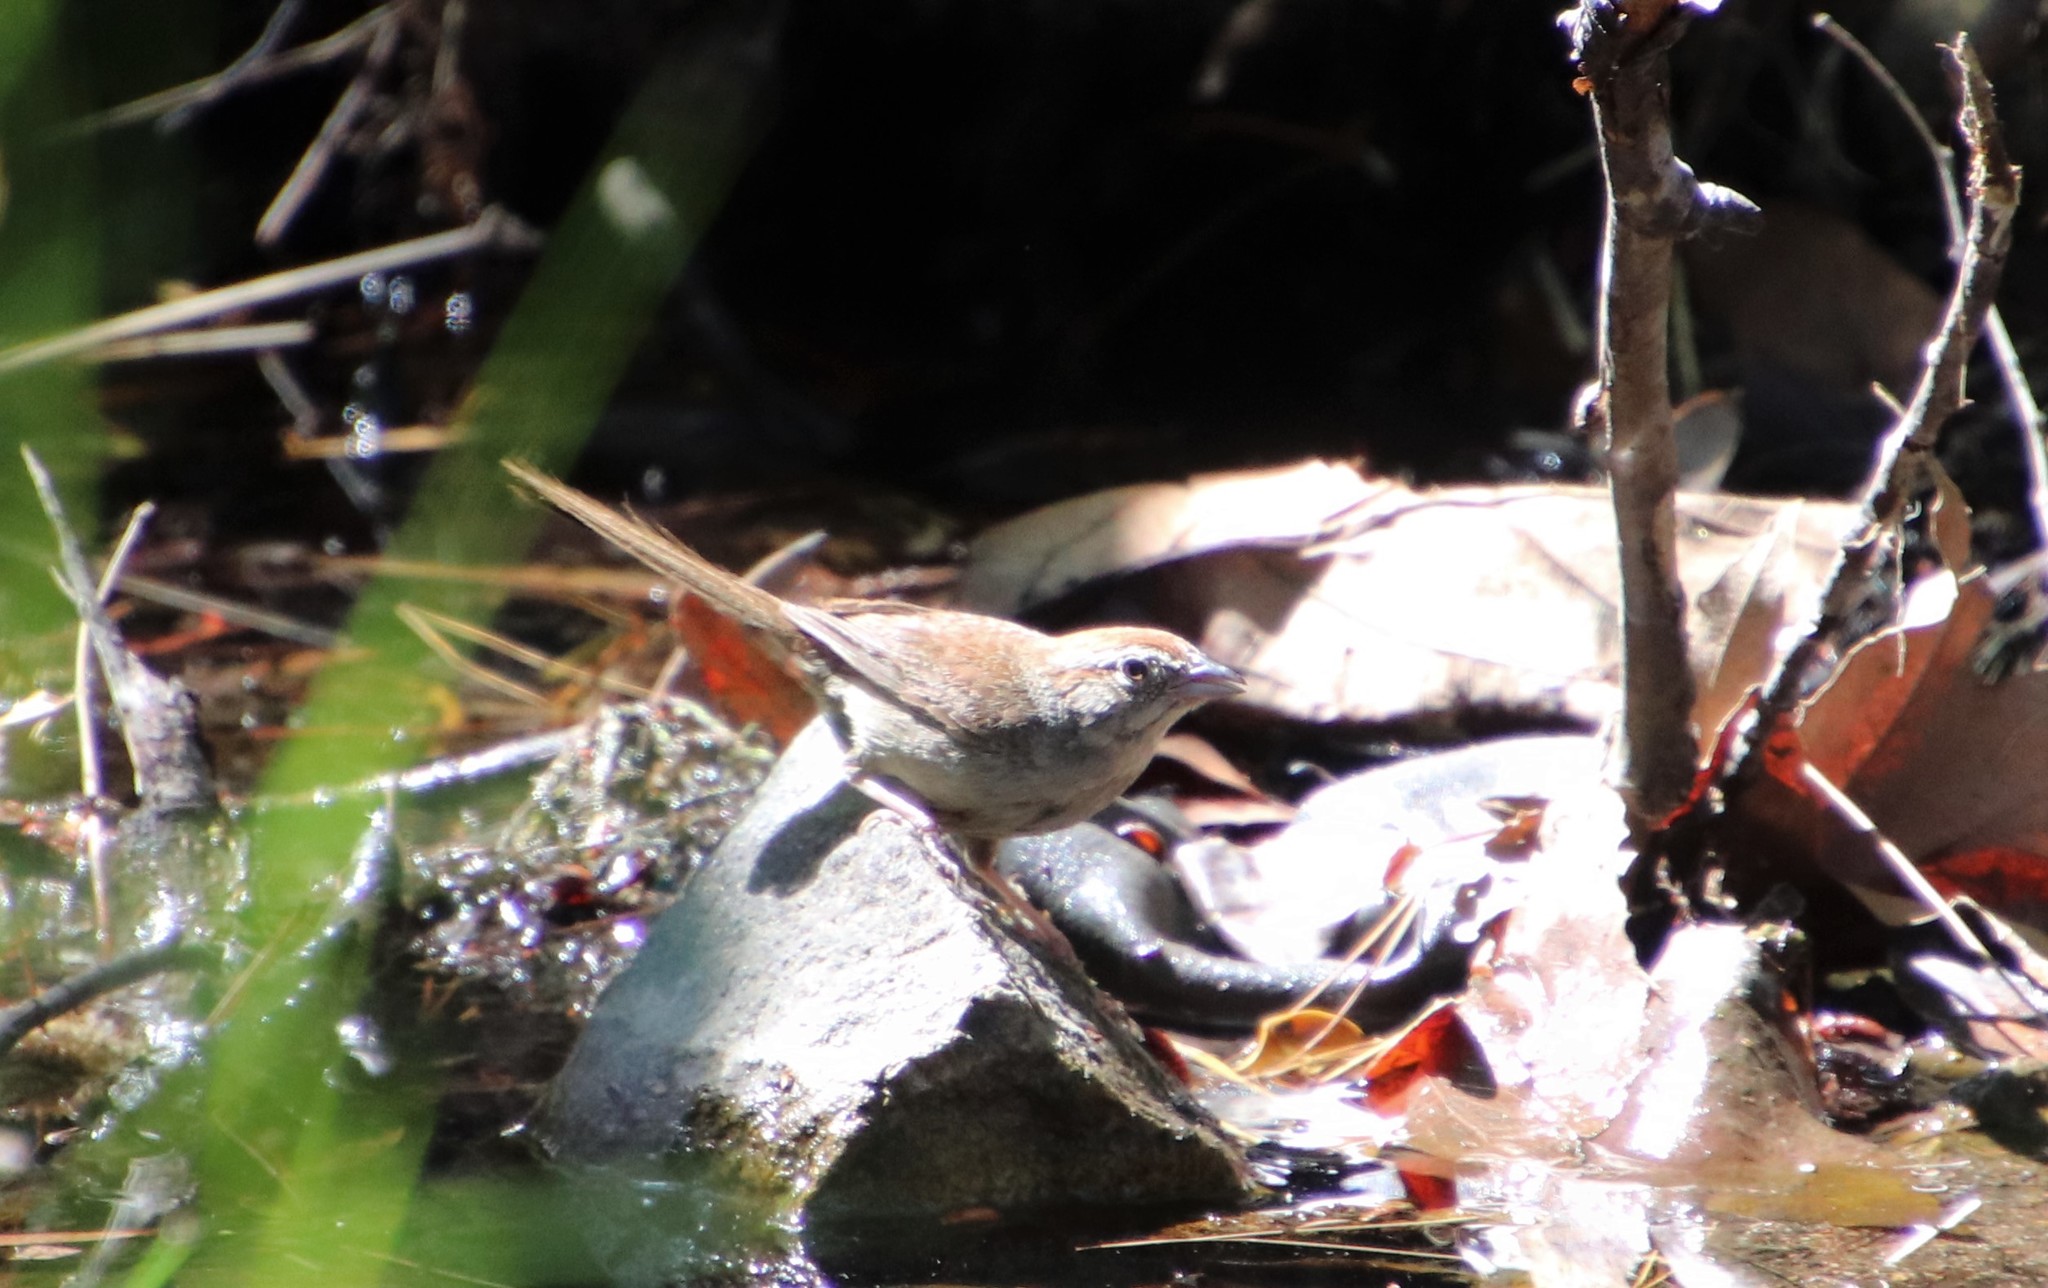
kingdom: Animalia
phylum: Chordata
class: Aves
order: Passeriformes
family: Passerellidae
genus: Aimophila
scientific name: Aimophila ruficeps
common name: Rufous-crowned sparrow
